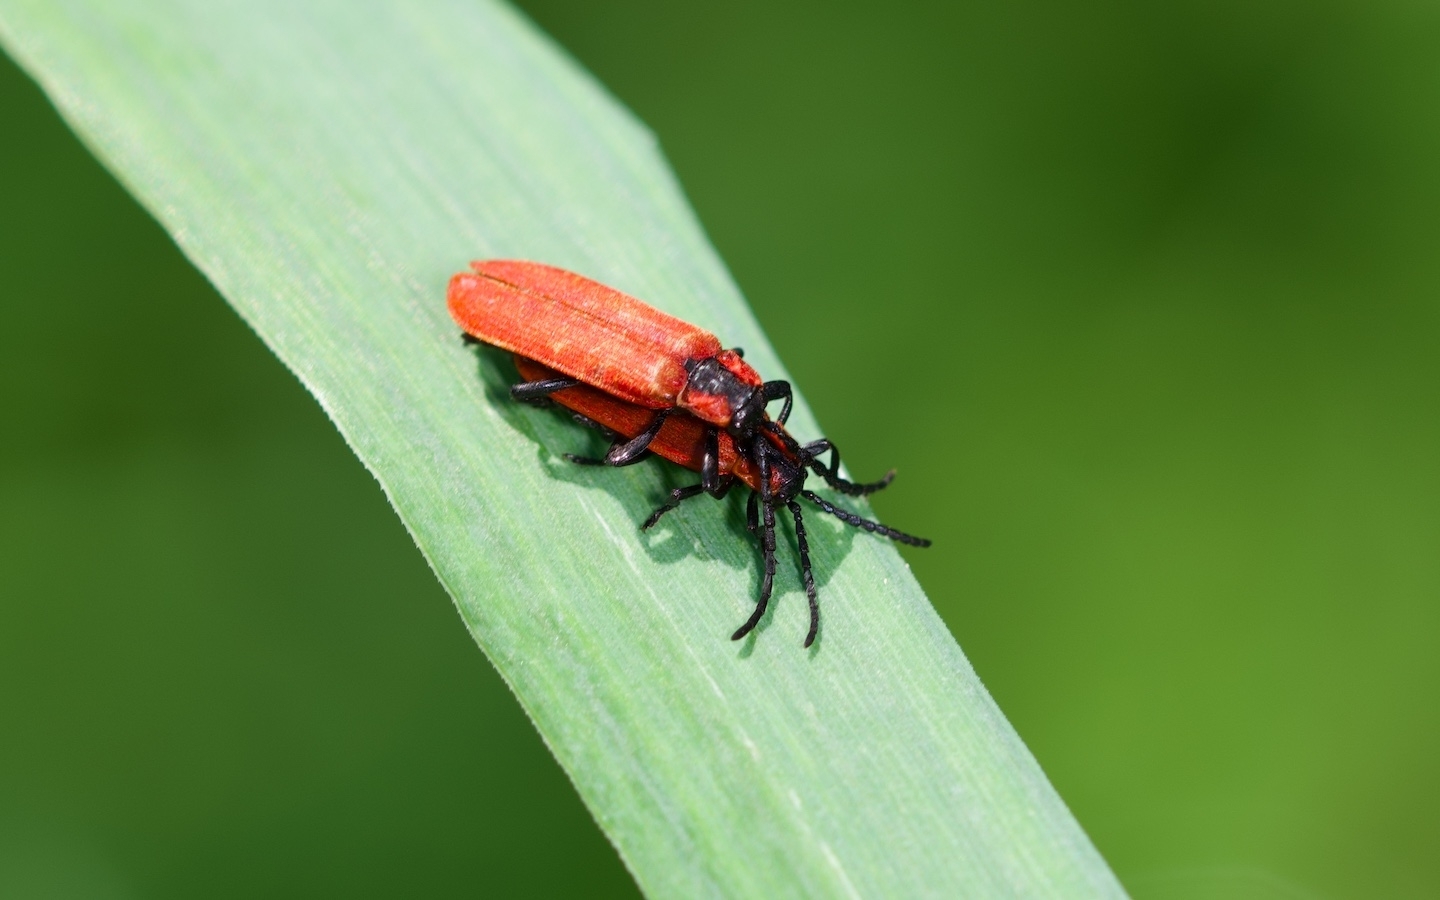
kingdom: Animalia
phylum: Arthropoda
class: Insecta
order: Coleoptera
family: Lycidae
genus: Lygistopterus
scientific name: Lygistopterus sanguineus
